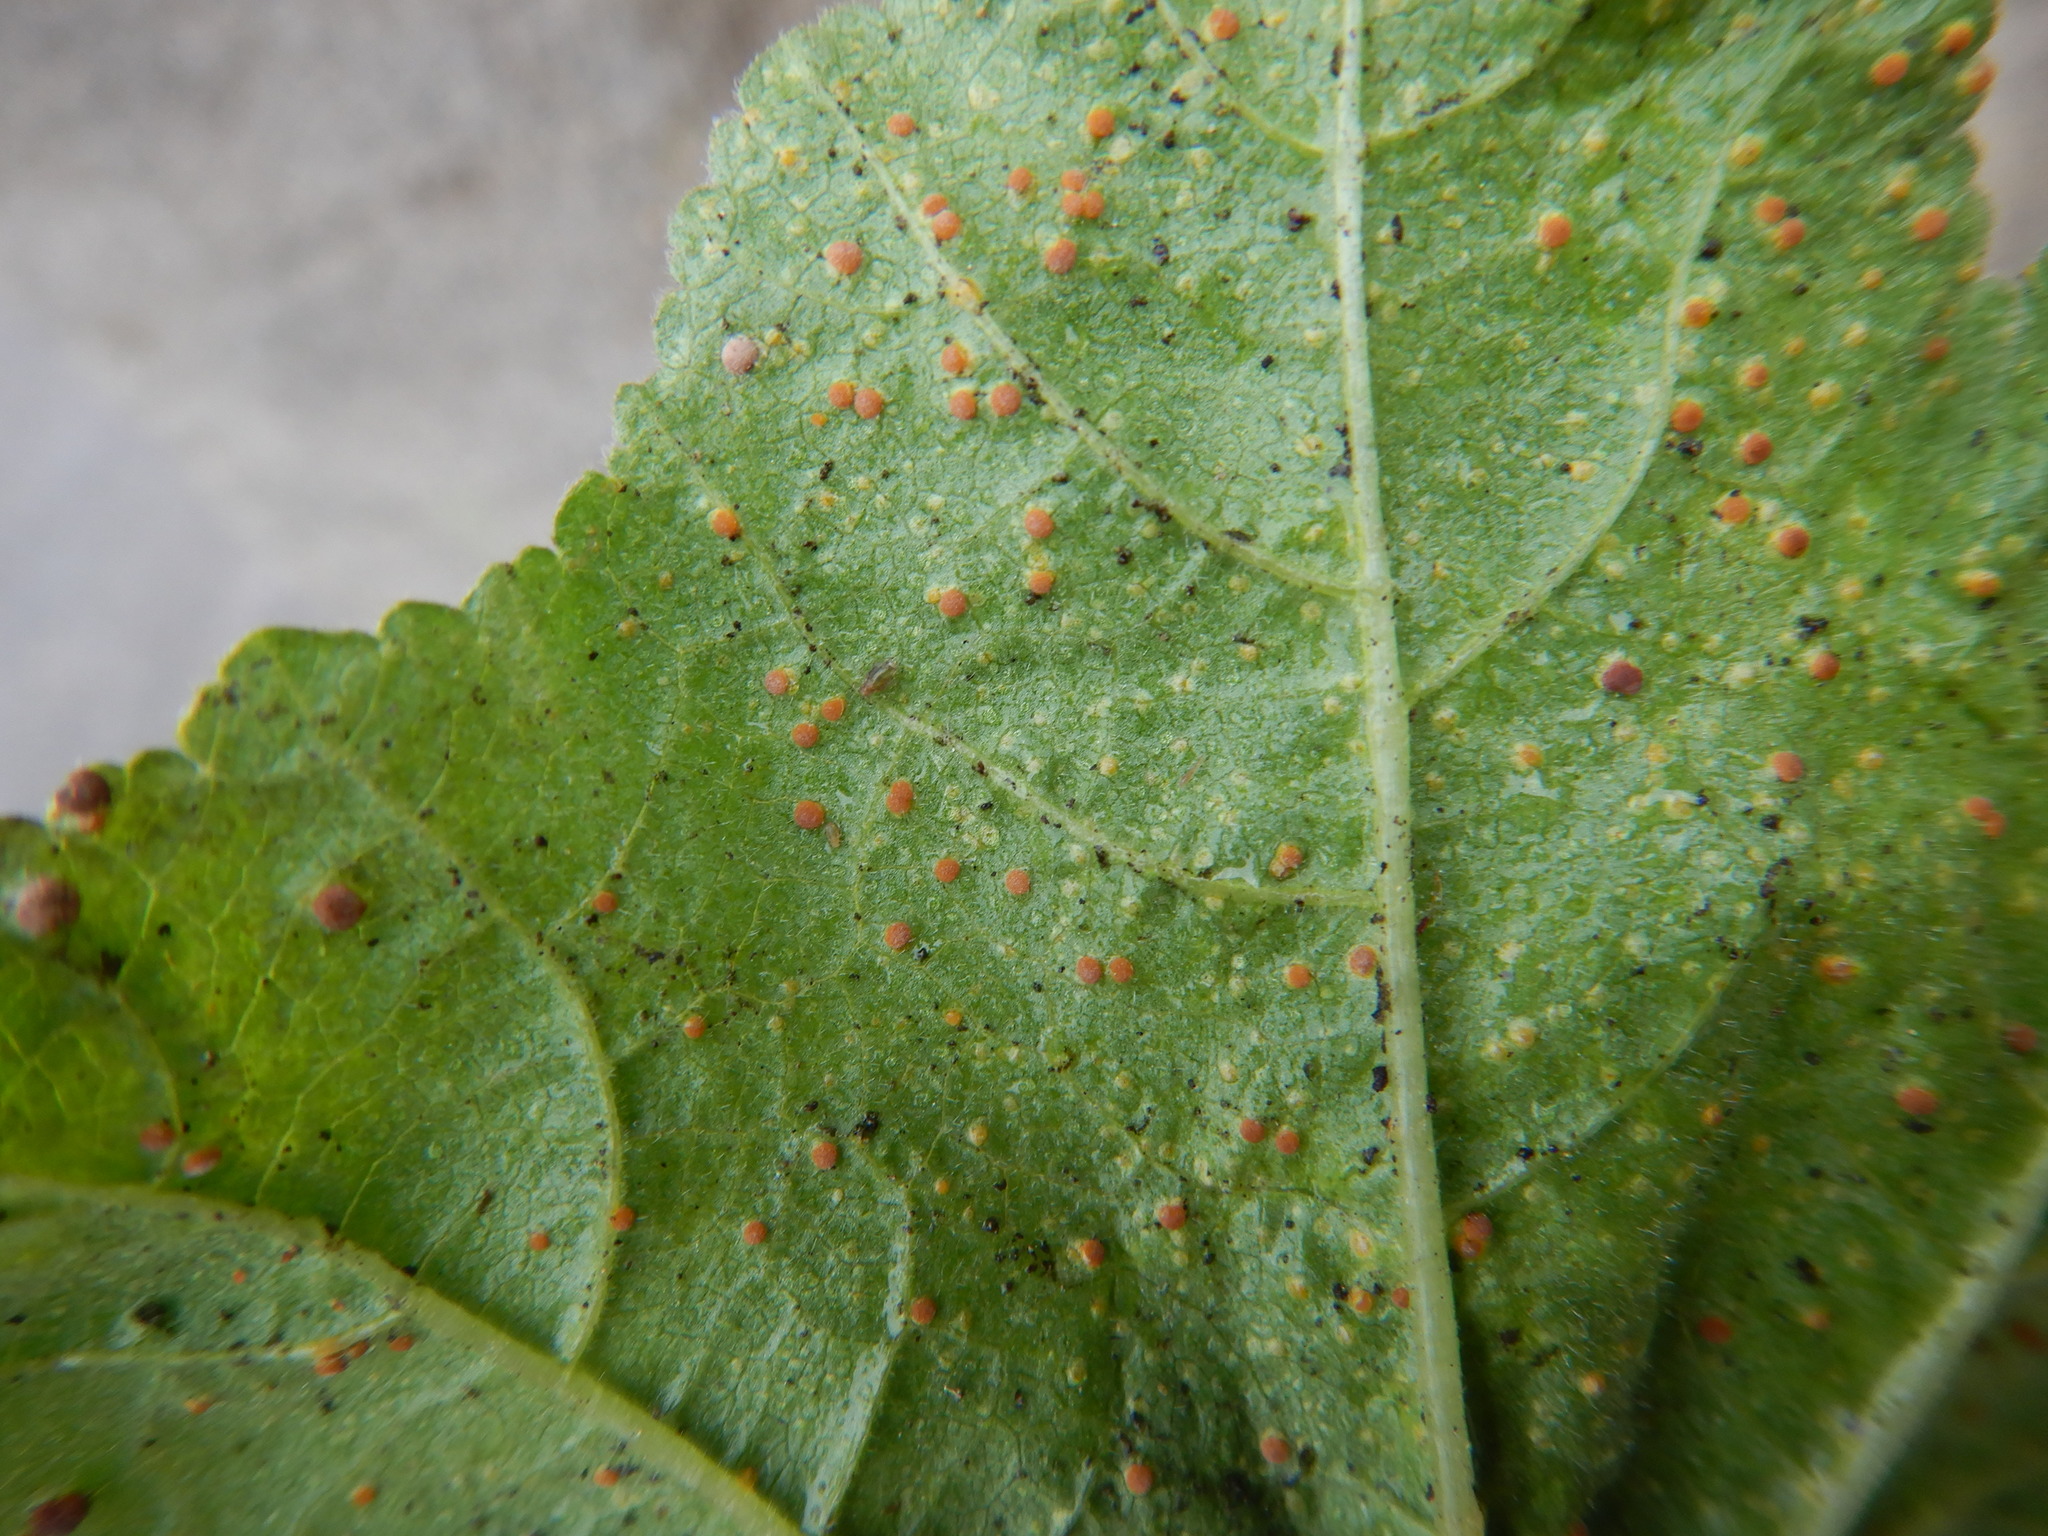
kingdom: Fungi
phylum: Basidiomycota
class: Pucciniomycetes
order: Pucciniales
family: Pucciniaceae
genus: Puccinia
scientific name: Puccinia malvacearum
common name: Hollyhock rust
